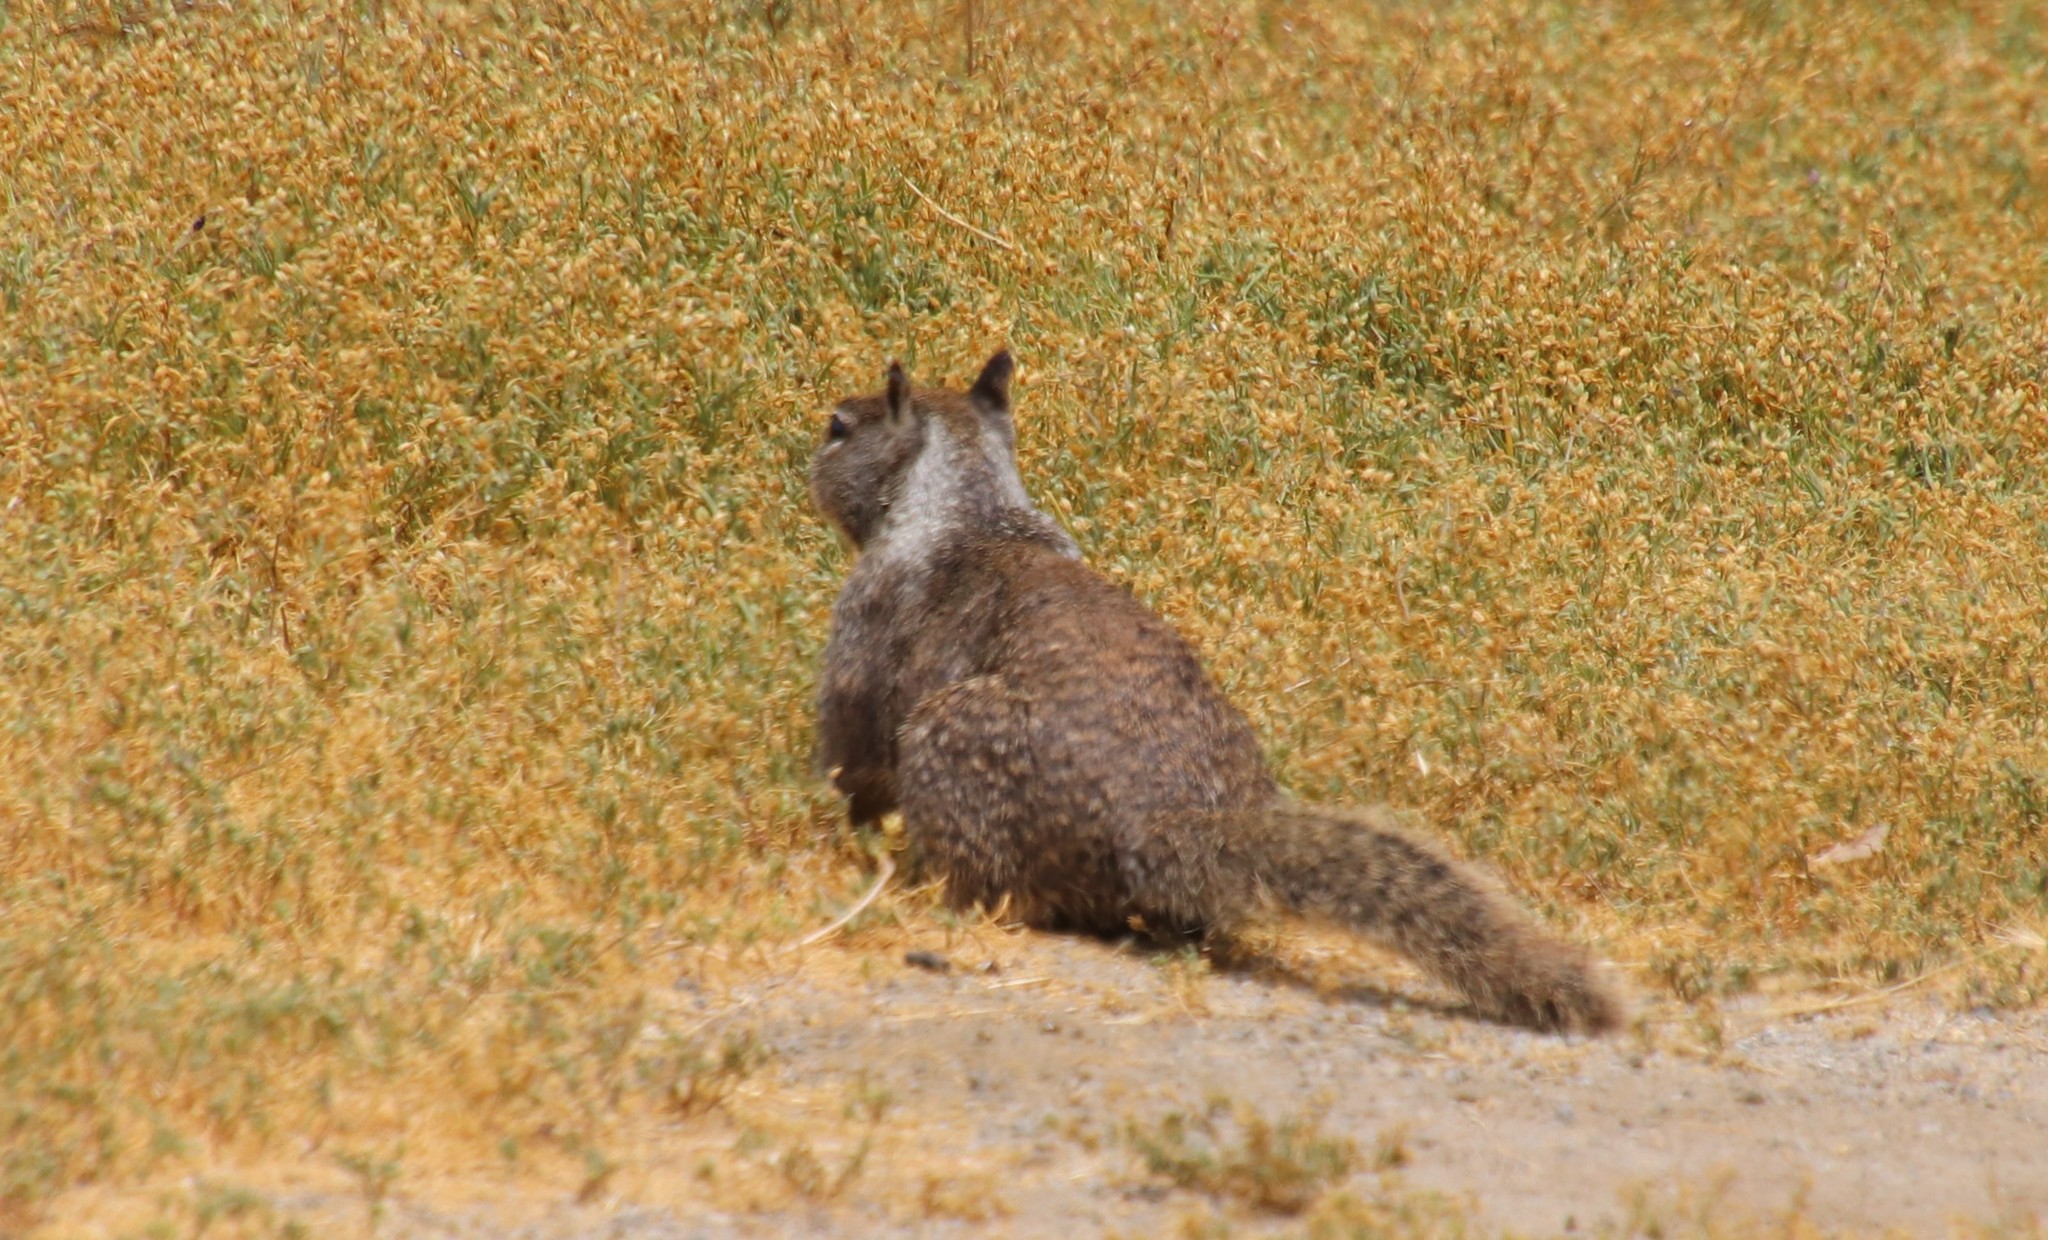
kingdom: Animalia
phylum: Chordata
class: Mammalia
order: Rodentia
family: Sciuridae
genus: Otospermophilus
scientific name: Otospermophilus beecheyi
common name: California ground squirrel
